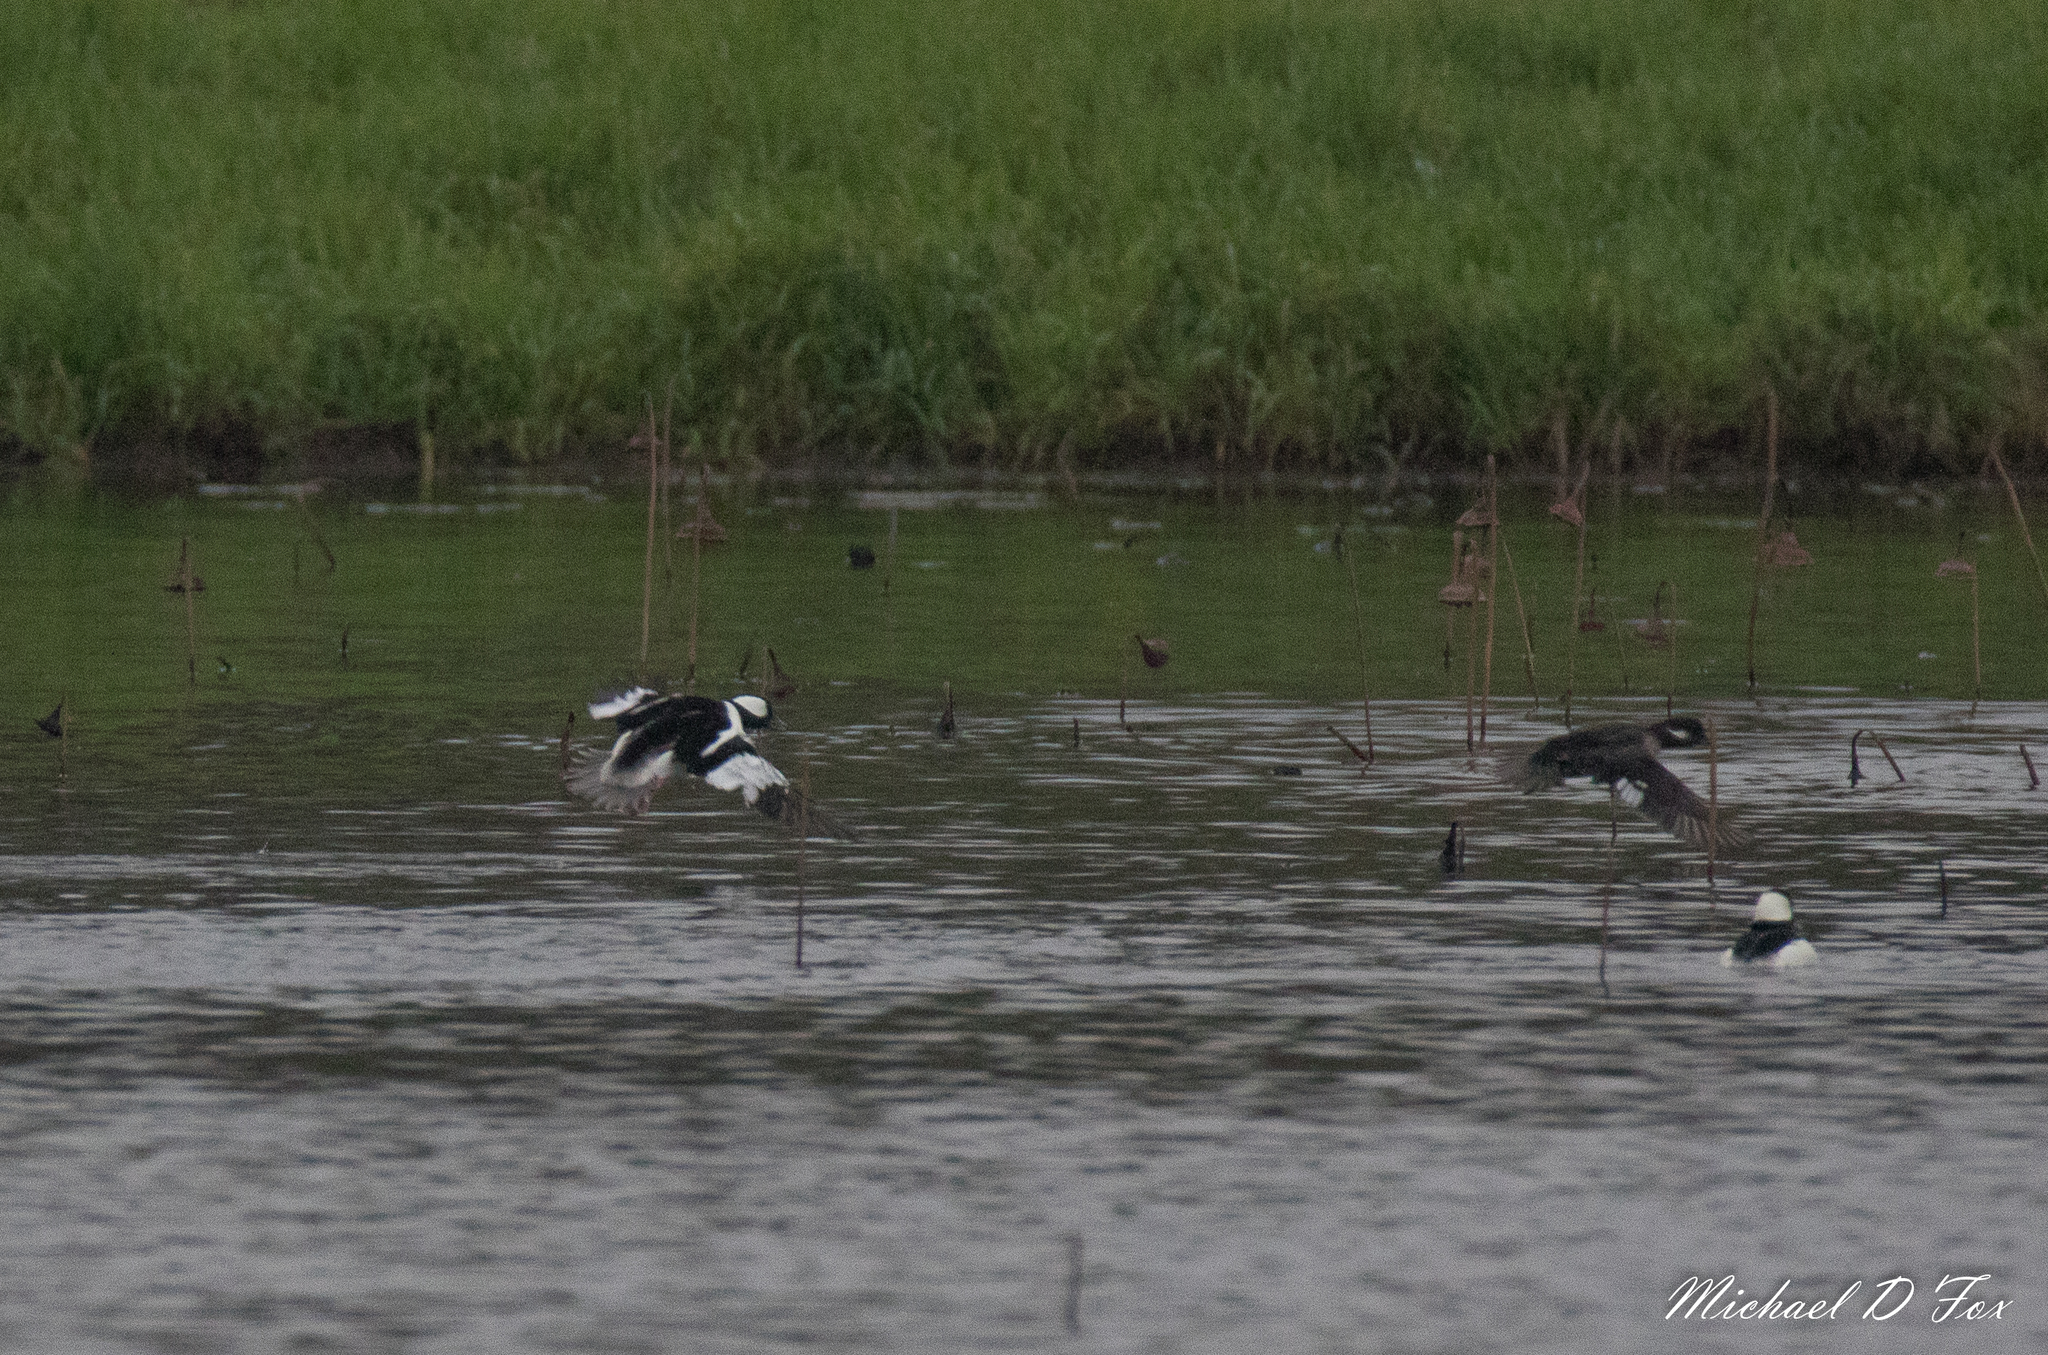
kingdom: Animalia
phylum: Chordata
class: Aves
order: Anseriformes
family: Anatidae
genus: Bucephala
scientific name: Bucephala albeola
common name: Bufflehead
